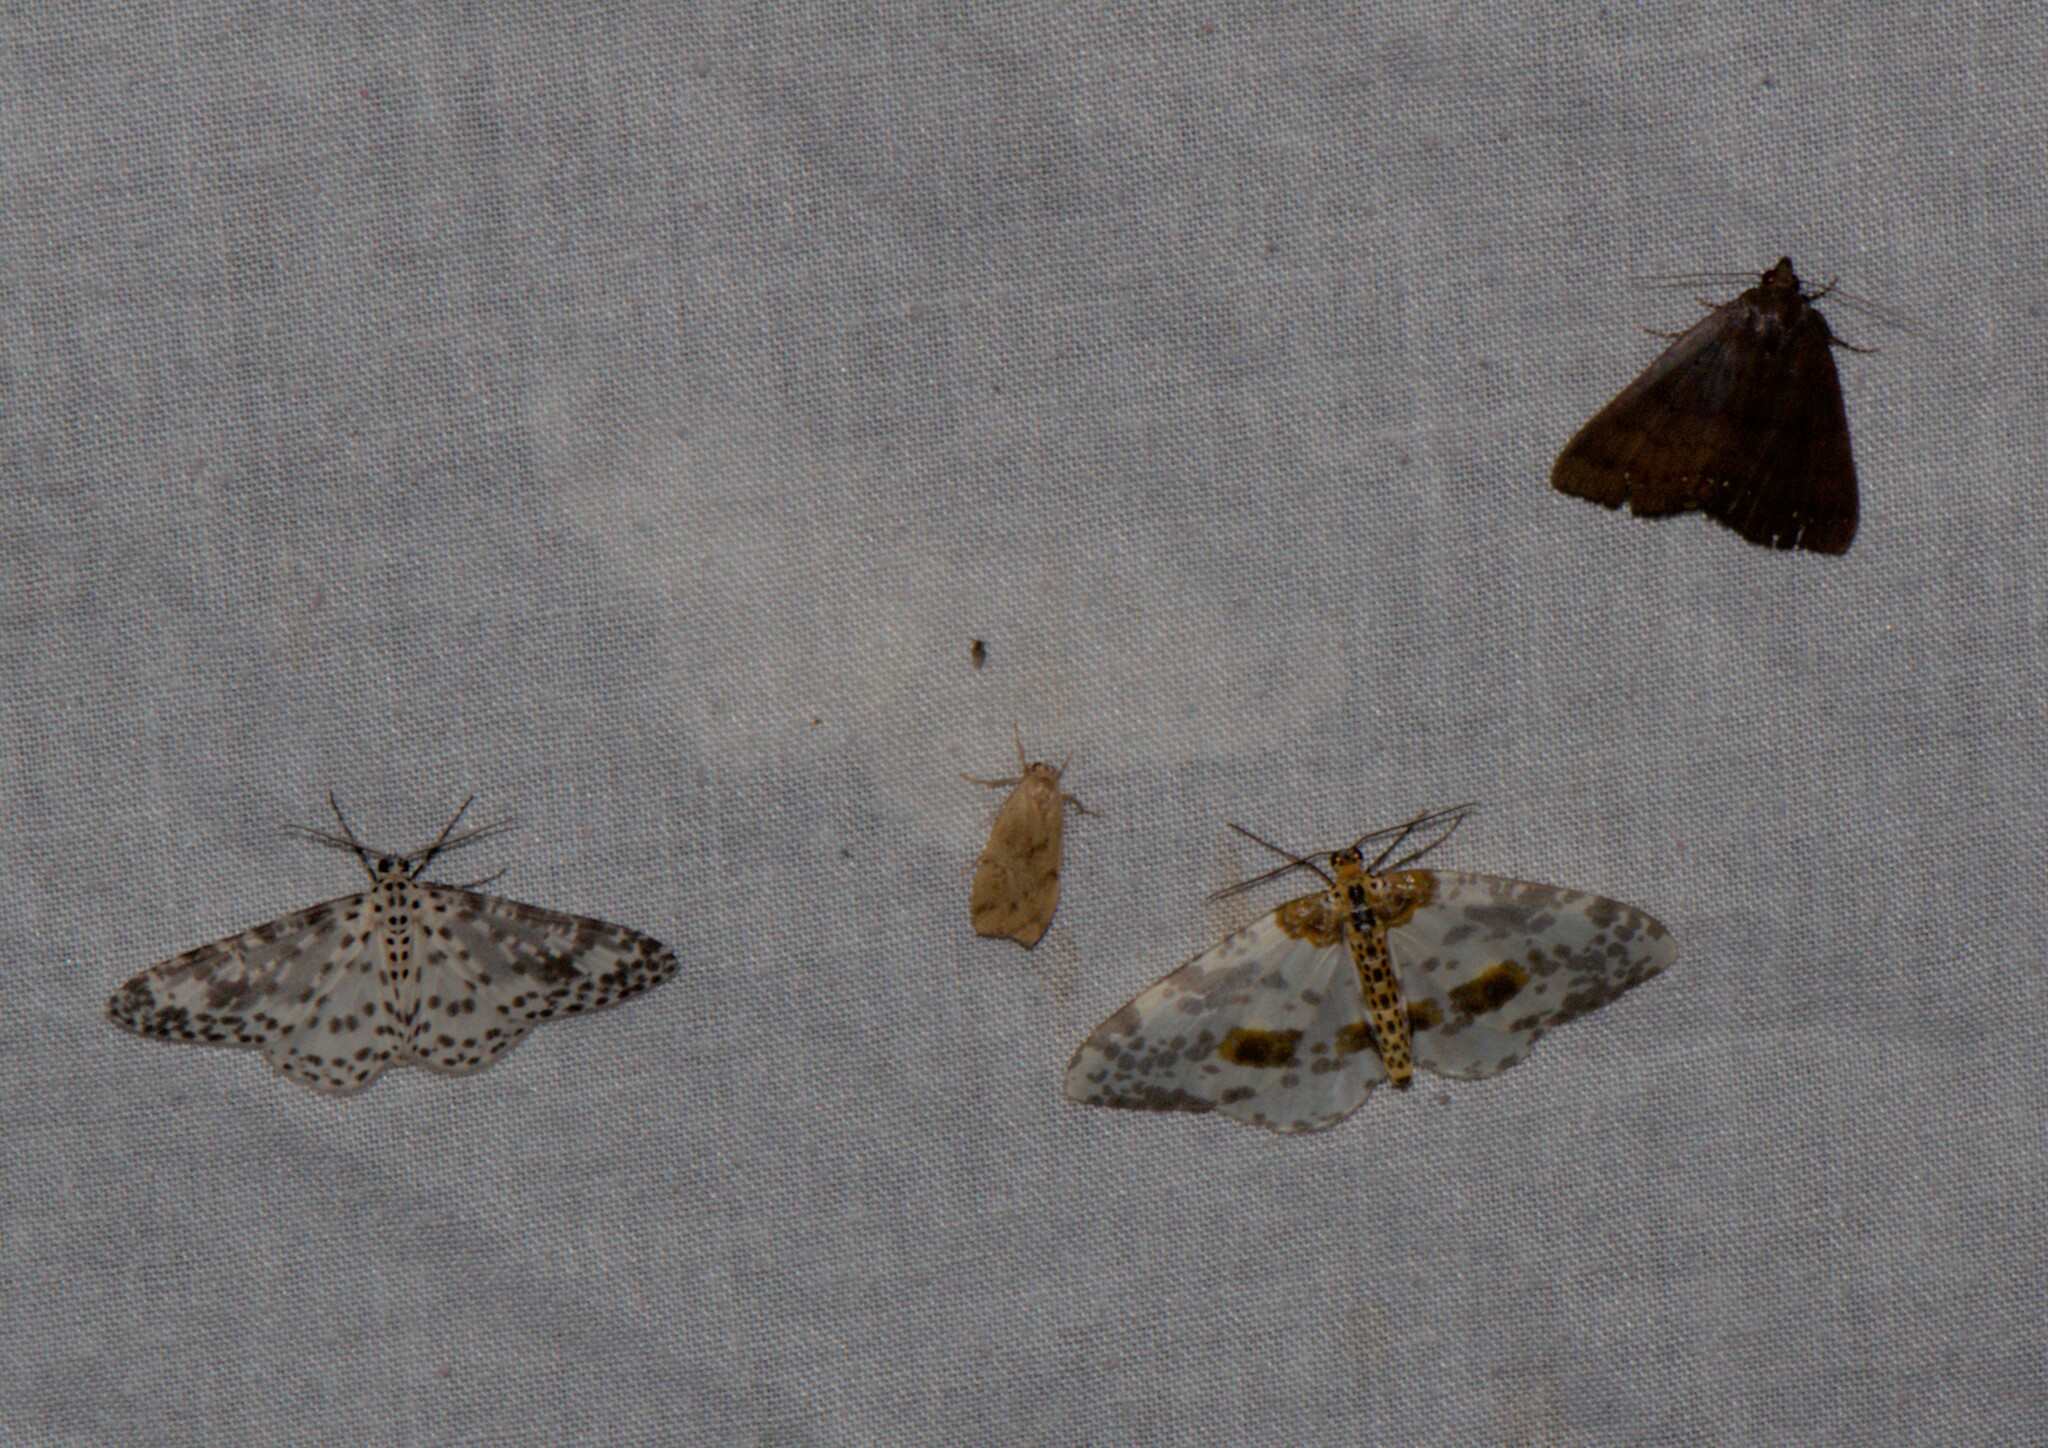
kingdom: Animalia
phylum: Arthropoda
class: Insecta
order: Lepidoptera
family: Geometridae
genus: Xenoplia
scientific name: Xenoplia maculata
